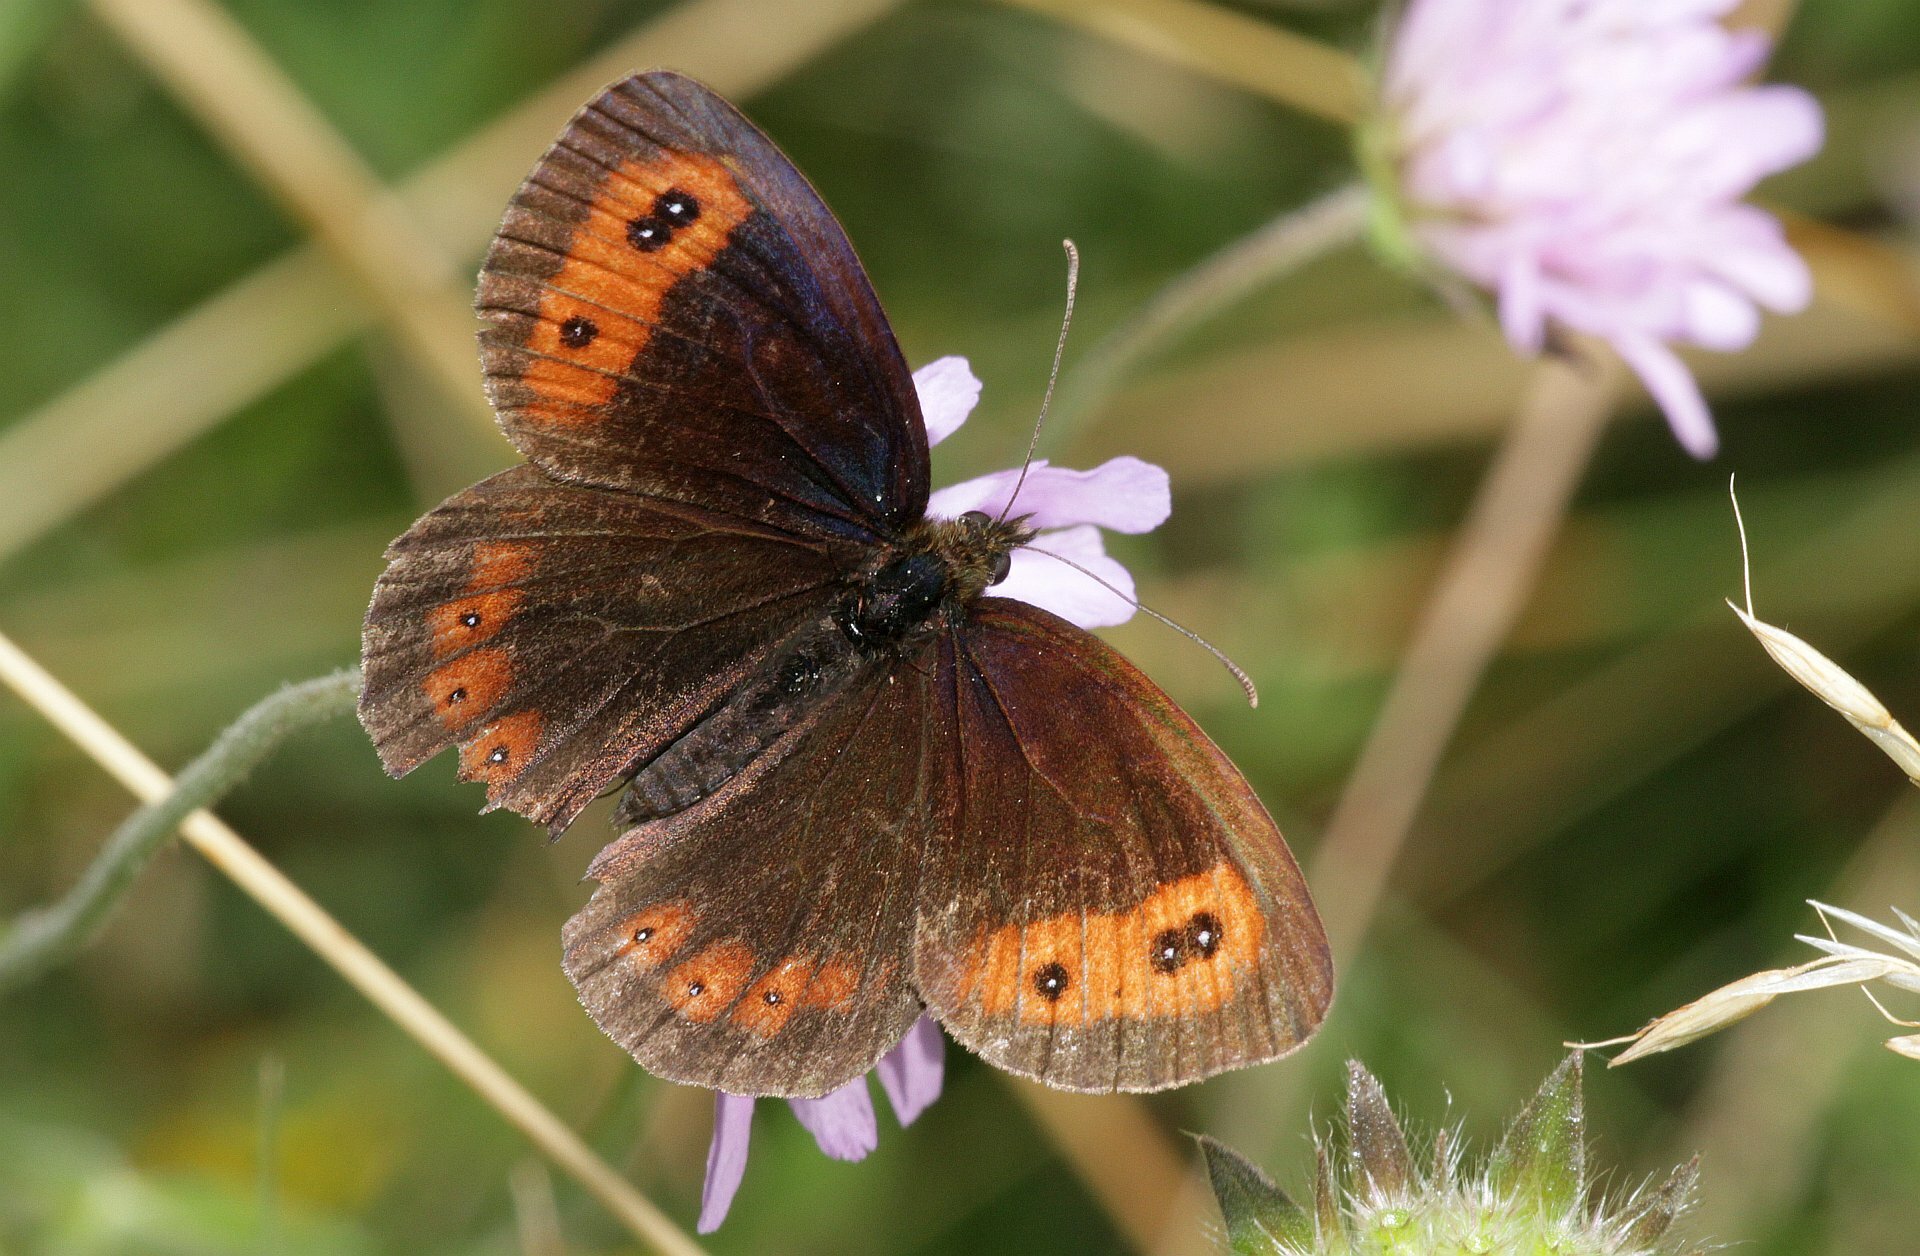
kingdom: Animalia
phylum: Arthropoda
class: Insecta
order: Lepidoptera
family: Nymphalidae
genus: Erebia
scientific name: Erebia aethiops
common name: Scotch argus
